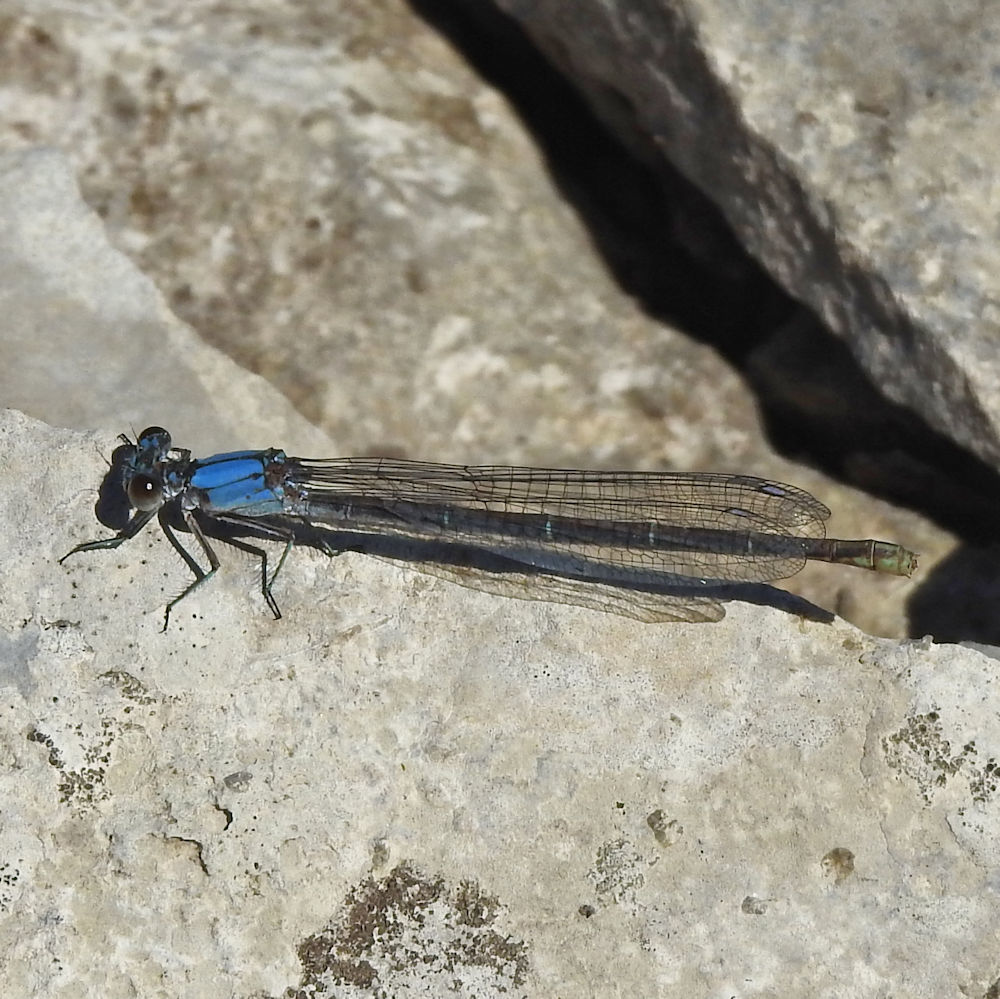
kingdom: Animalia
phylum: Arthropoda
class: Insecta
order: Odonata
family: Coenagrionidae
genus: Argia
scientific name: Argia moesta
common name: Powdered dancer
